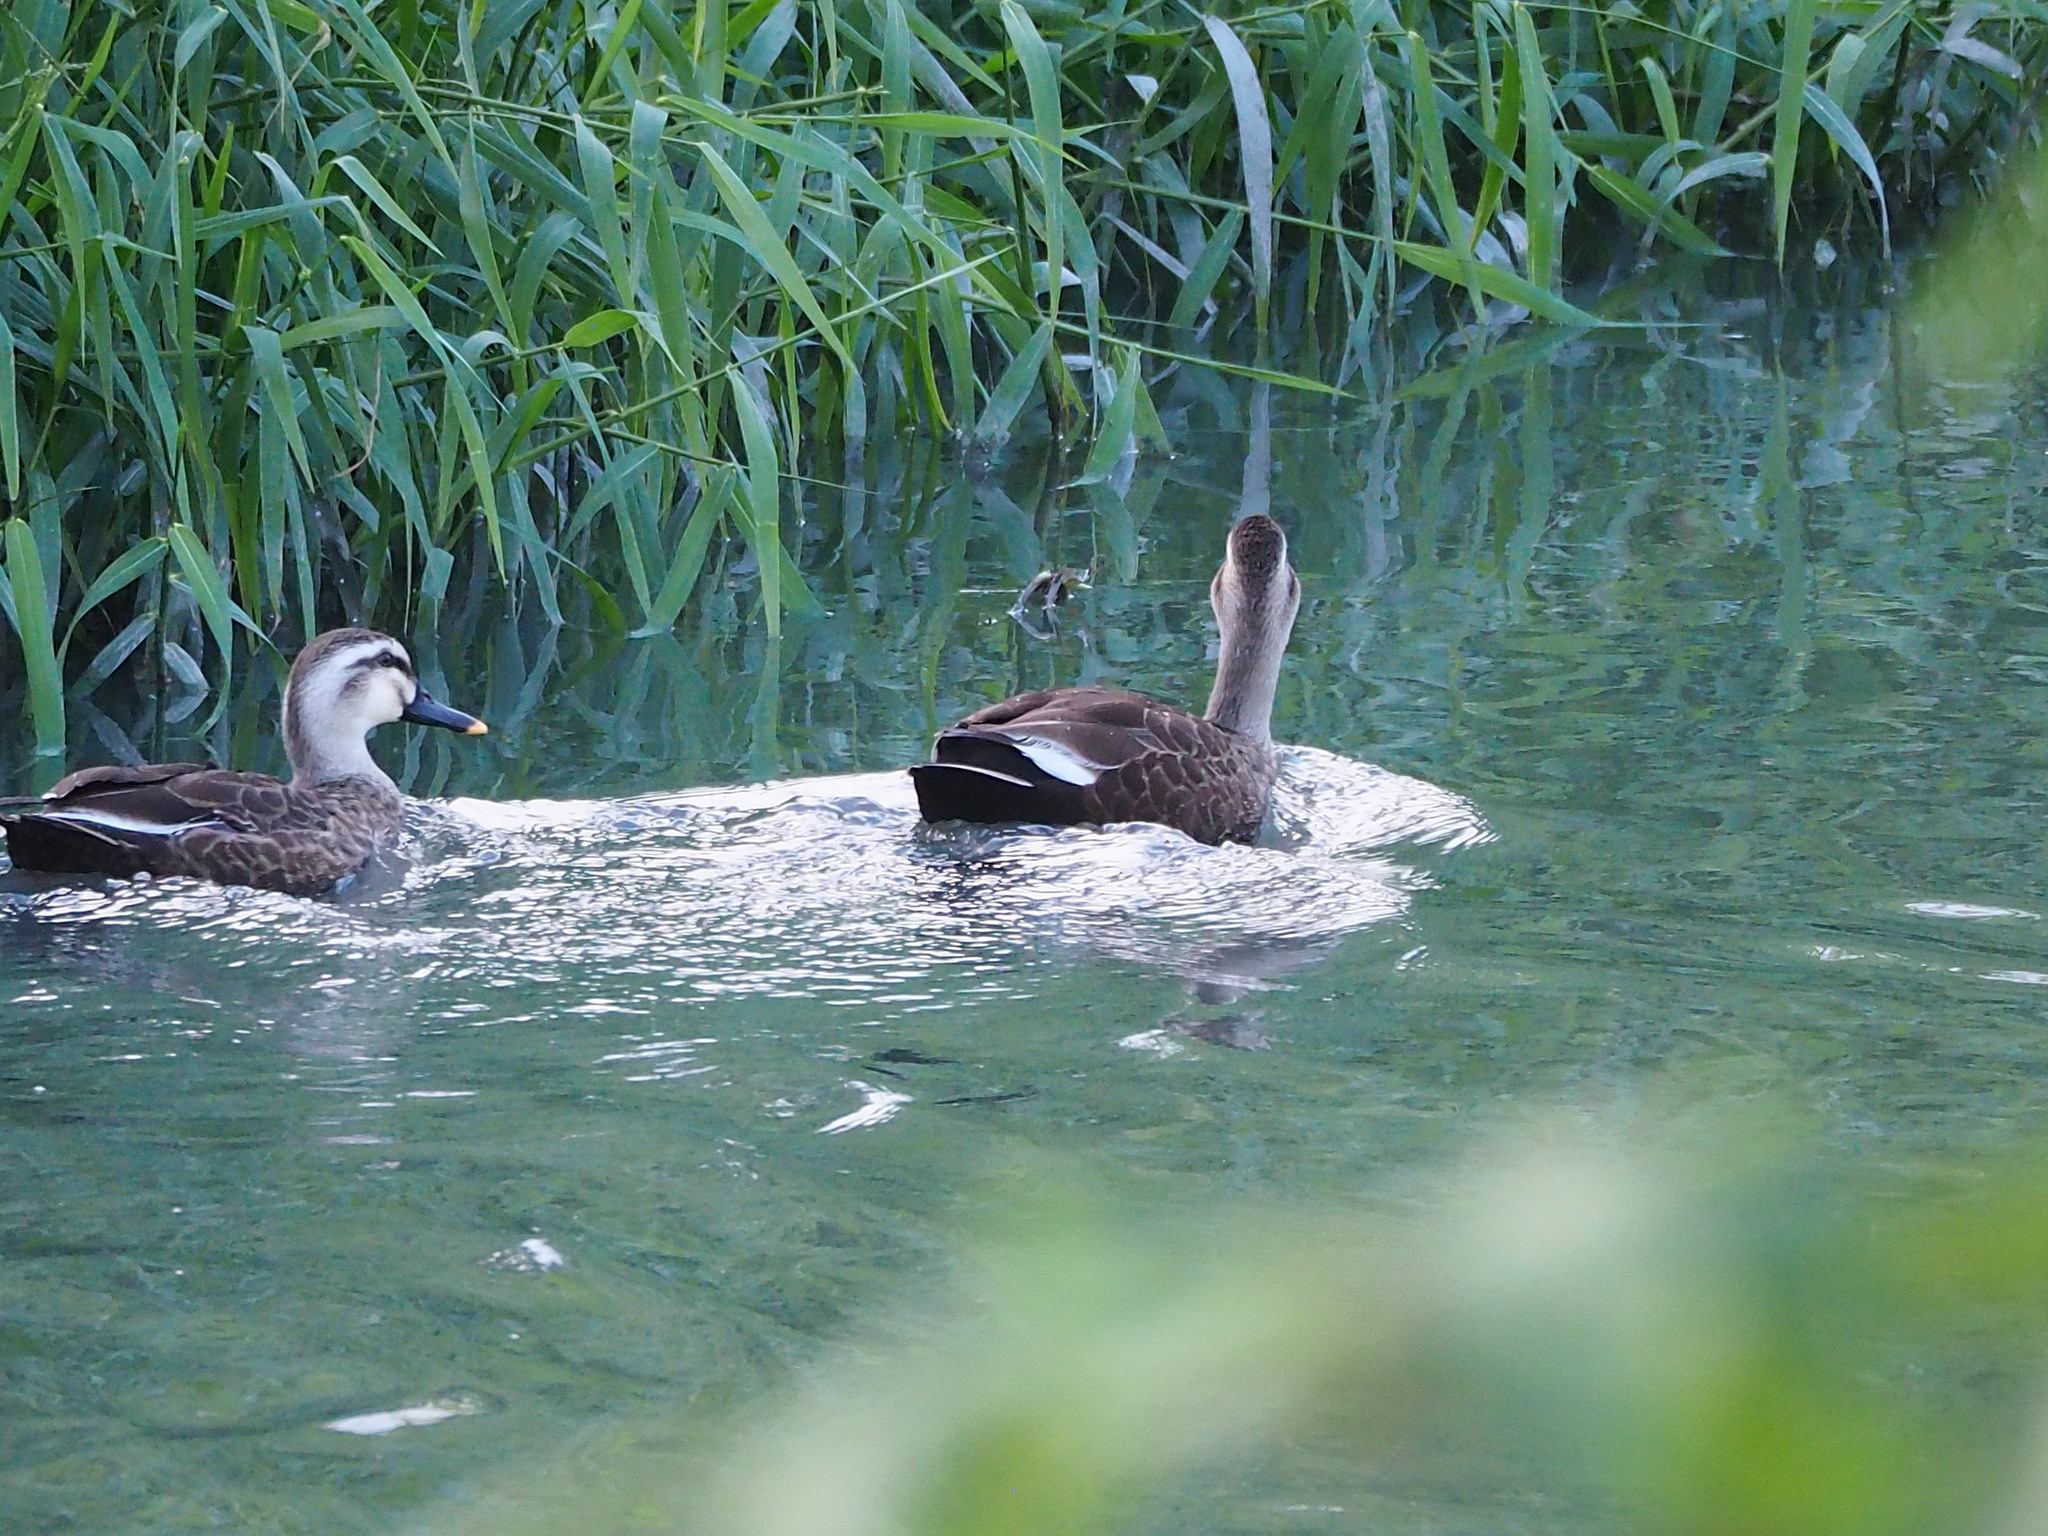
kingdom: Animalia
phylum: Chordata
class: Aves
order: Anseriformes
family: Anatidae
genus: Anas
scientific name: Anas zonorhyncha
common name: Eastern spot-billed duck
